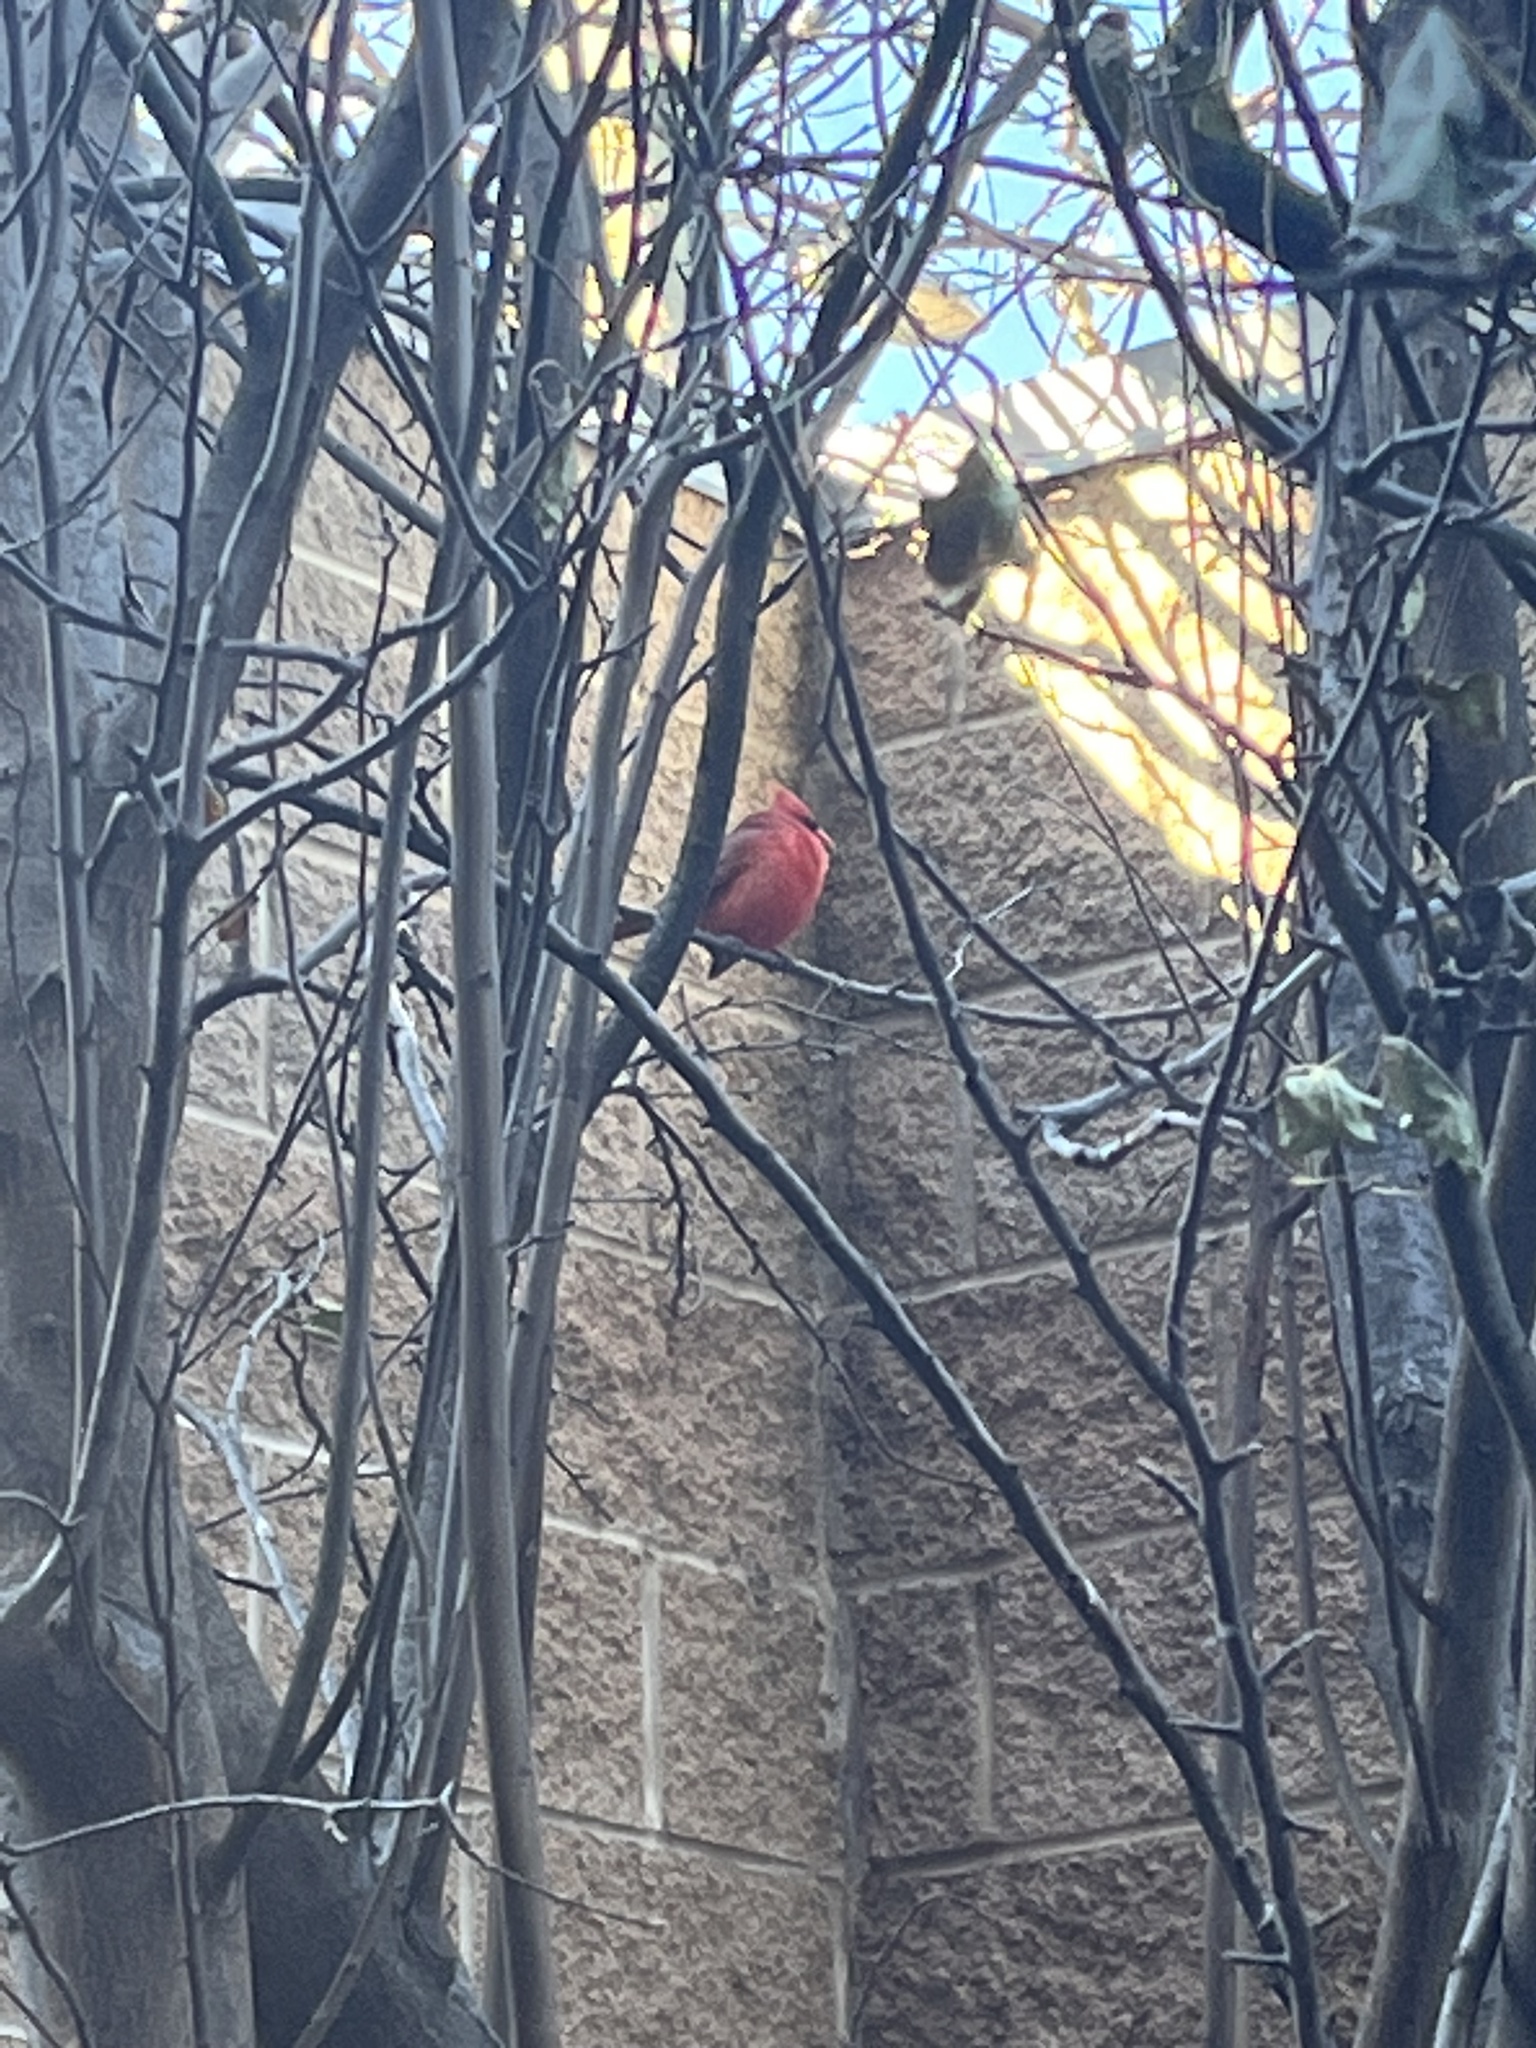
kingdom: Animalia
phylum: Chordata
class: Aves
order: Passeriformes
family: Cardinalidae
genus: Cardinalis
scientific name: Cardinalis cardinalis
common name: Northern cardinal
